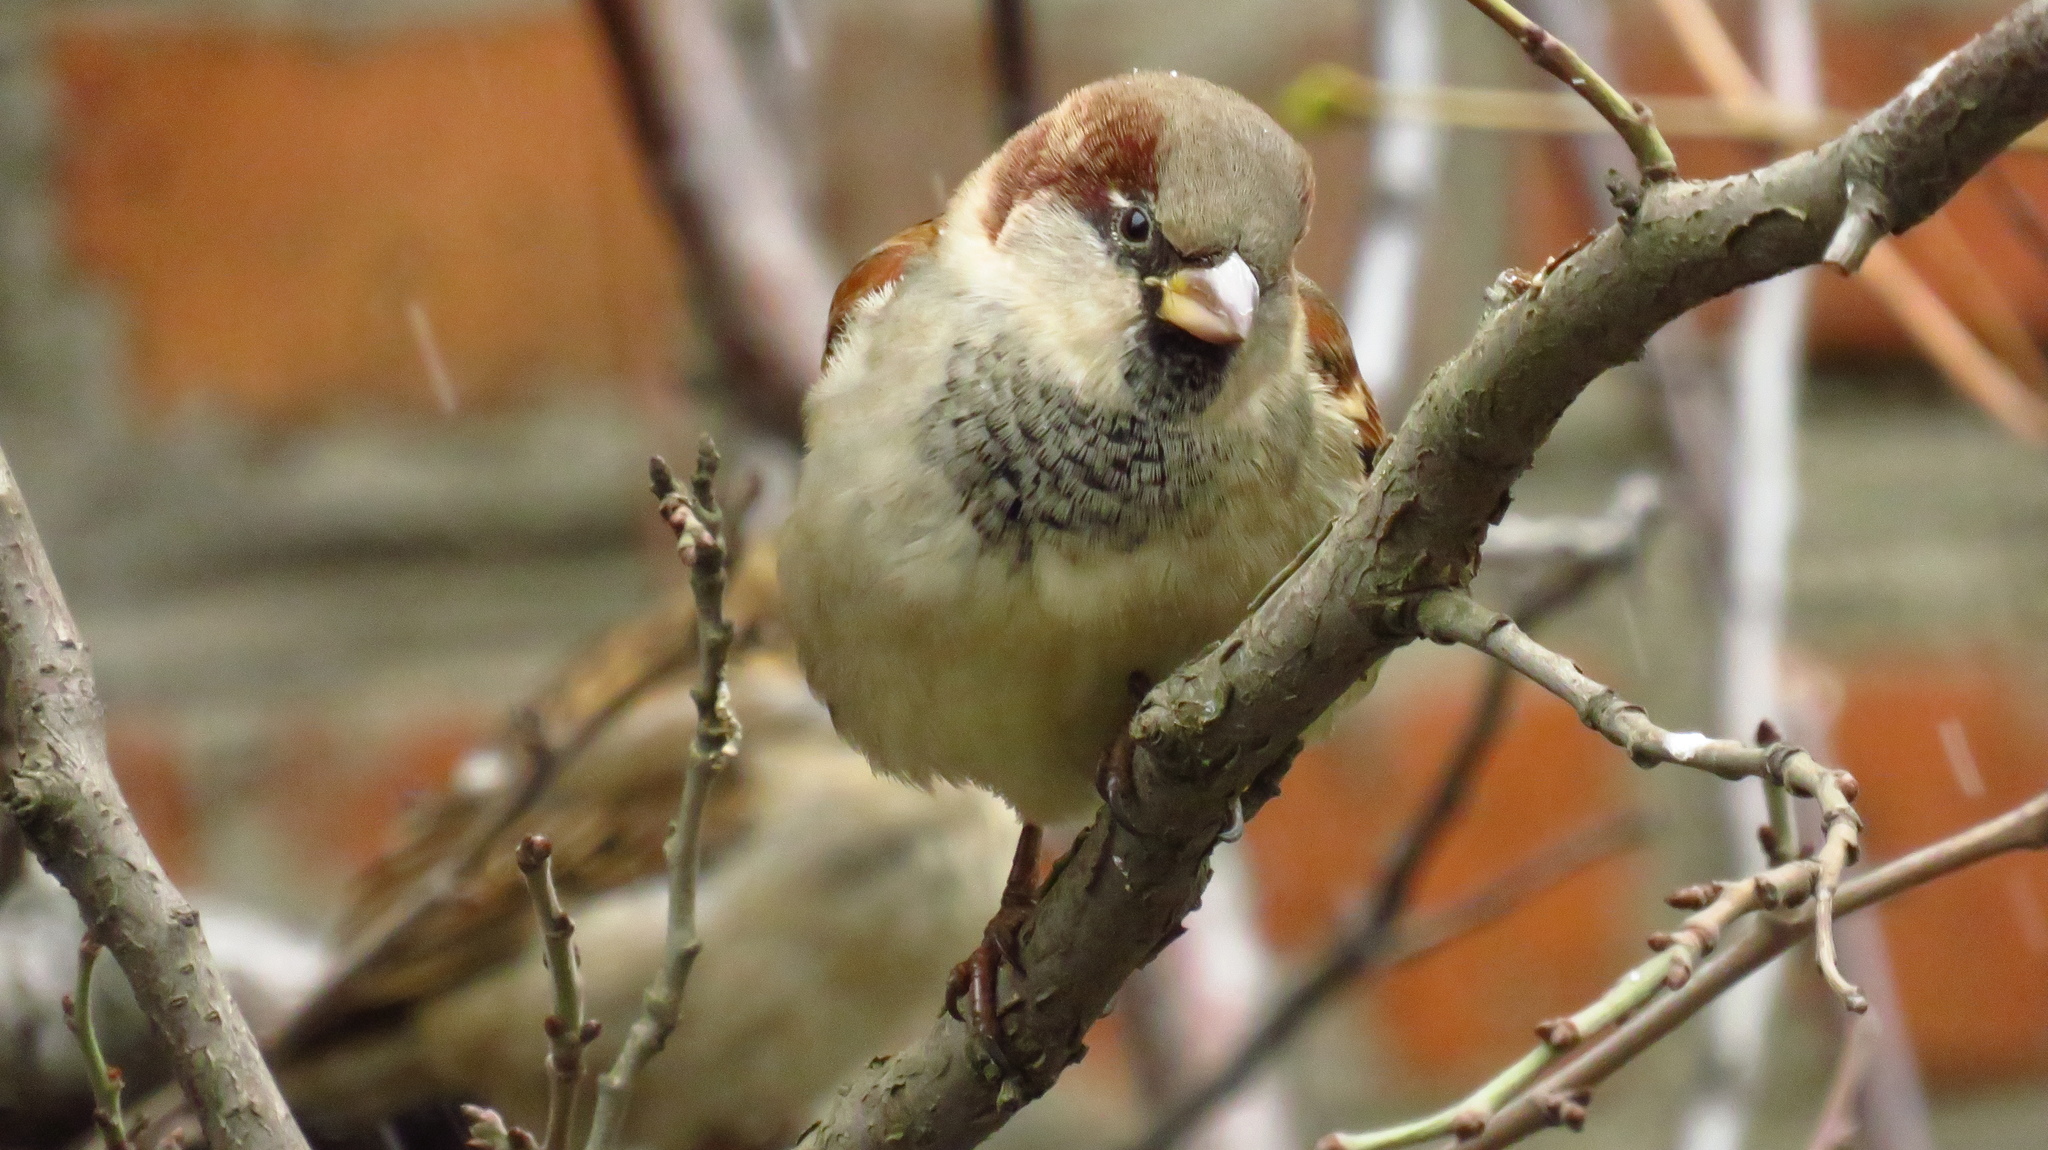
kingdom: Animalia
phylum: Chordata
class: Aves
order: Passeriformes
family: Passeridae
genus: Passer
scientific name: Passer domesticus
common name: House sparrow
